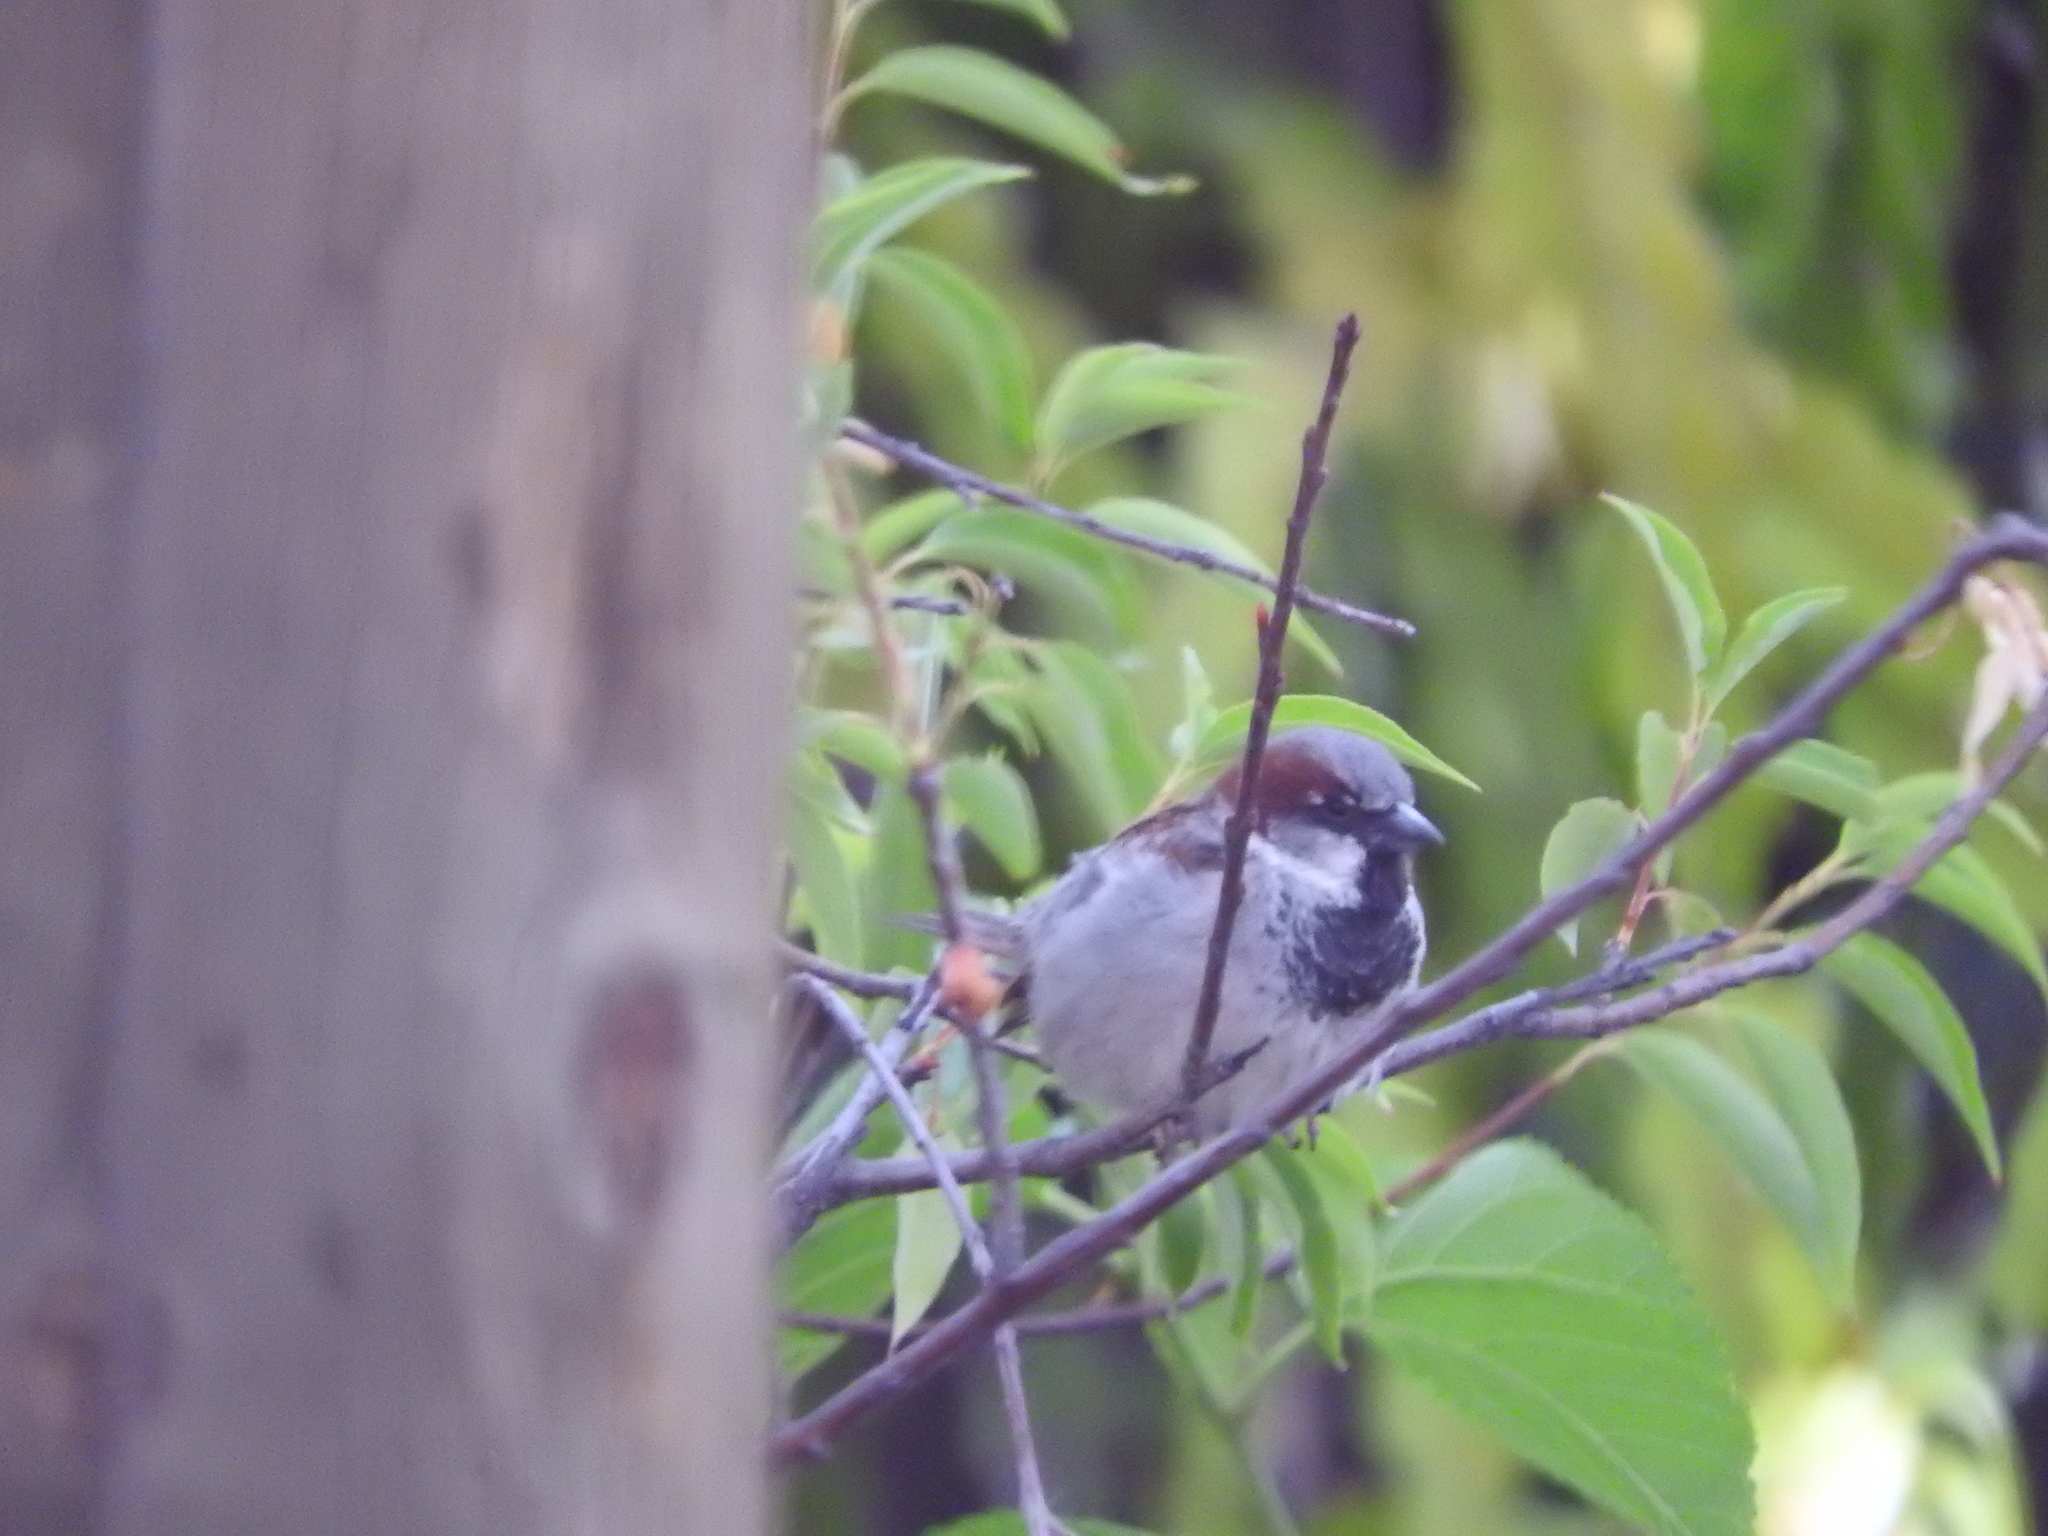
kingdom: Animalia
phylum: Chordata
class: Aves
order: Passeriformes
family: Passeridae
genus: Passer
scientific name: Passer domesticus
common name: House sparrow
